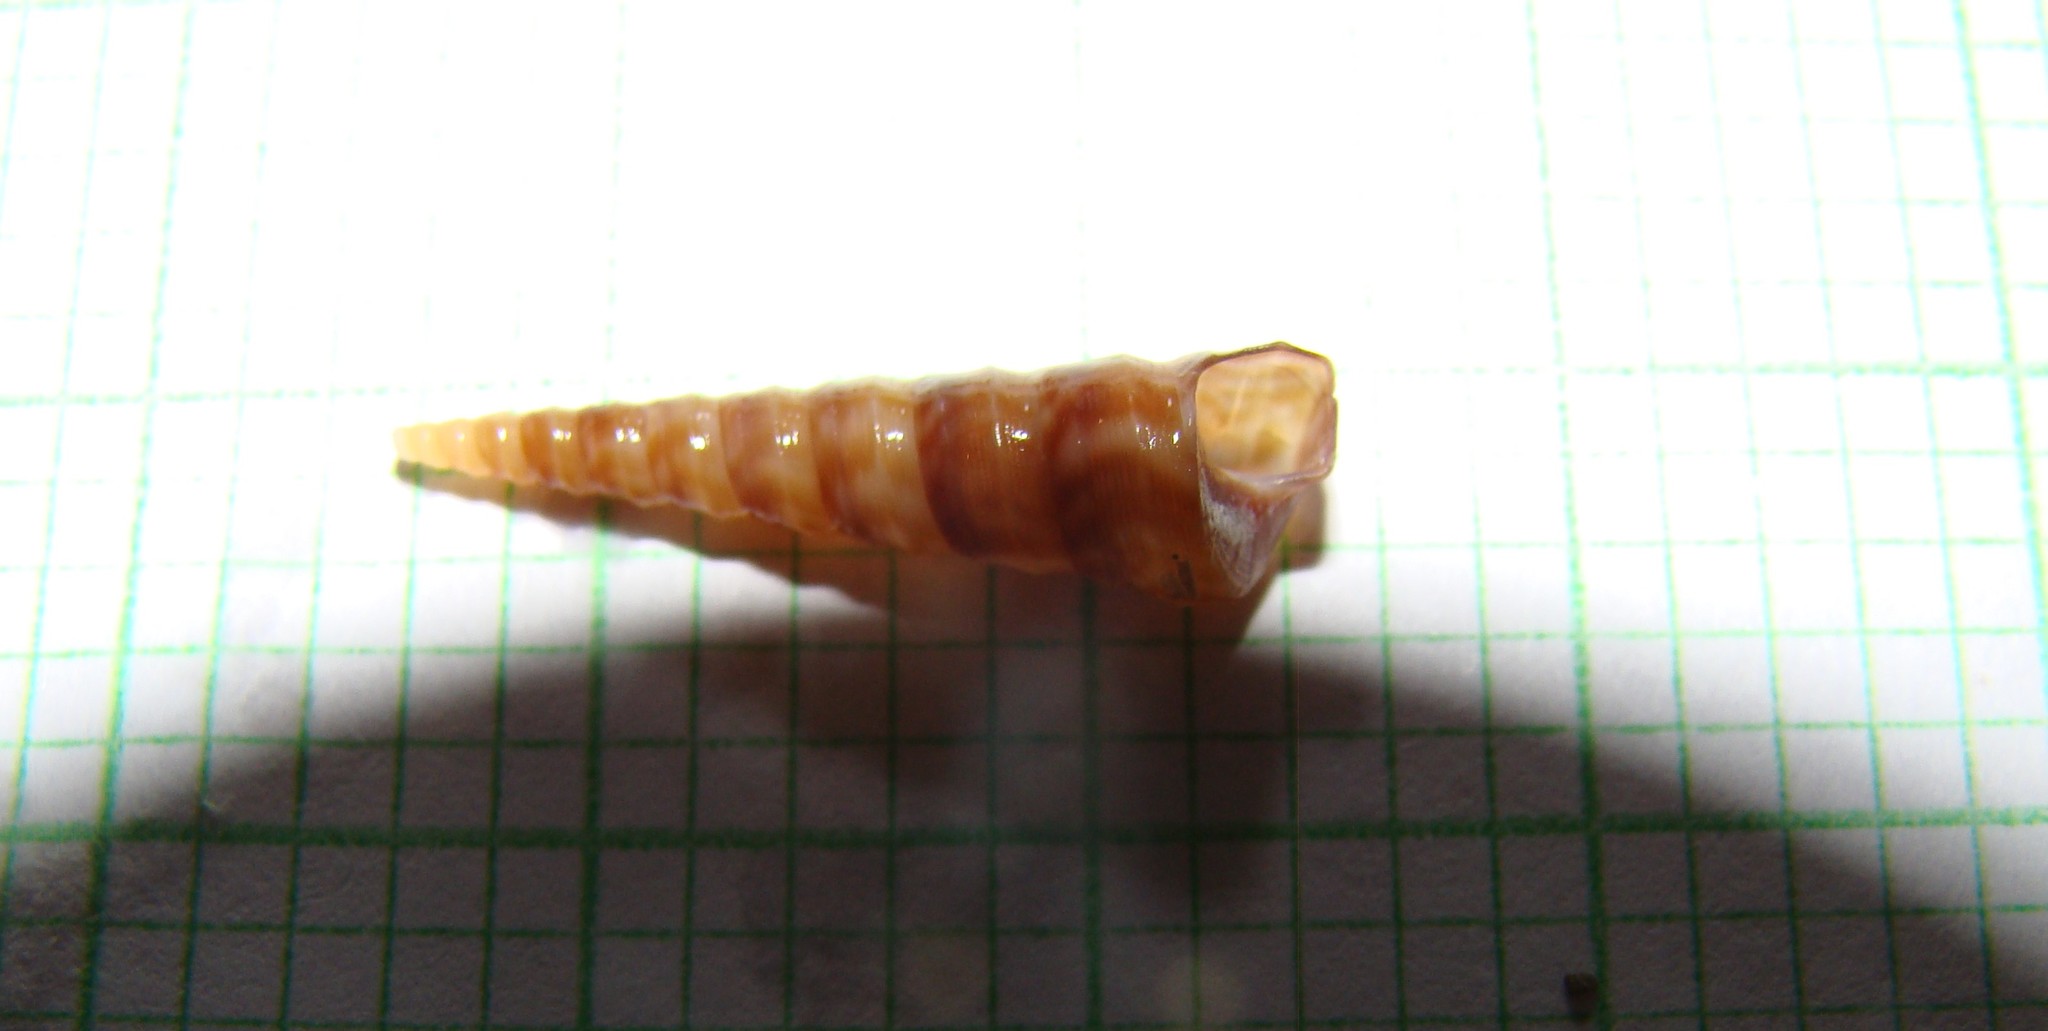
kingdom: Animalia
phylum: Mollusca
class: Gastropoda
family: Turritellidae
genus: Stiracolpus
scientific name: Stiracolpus pagoda
